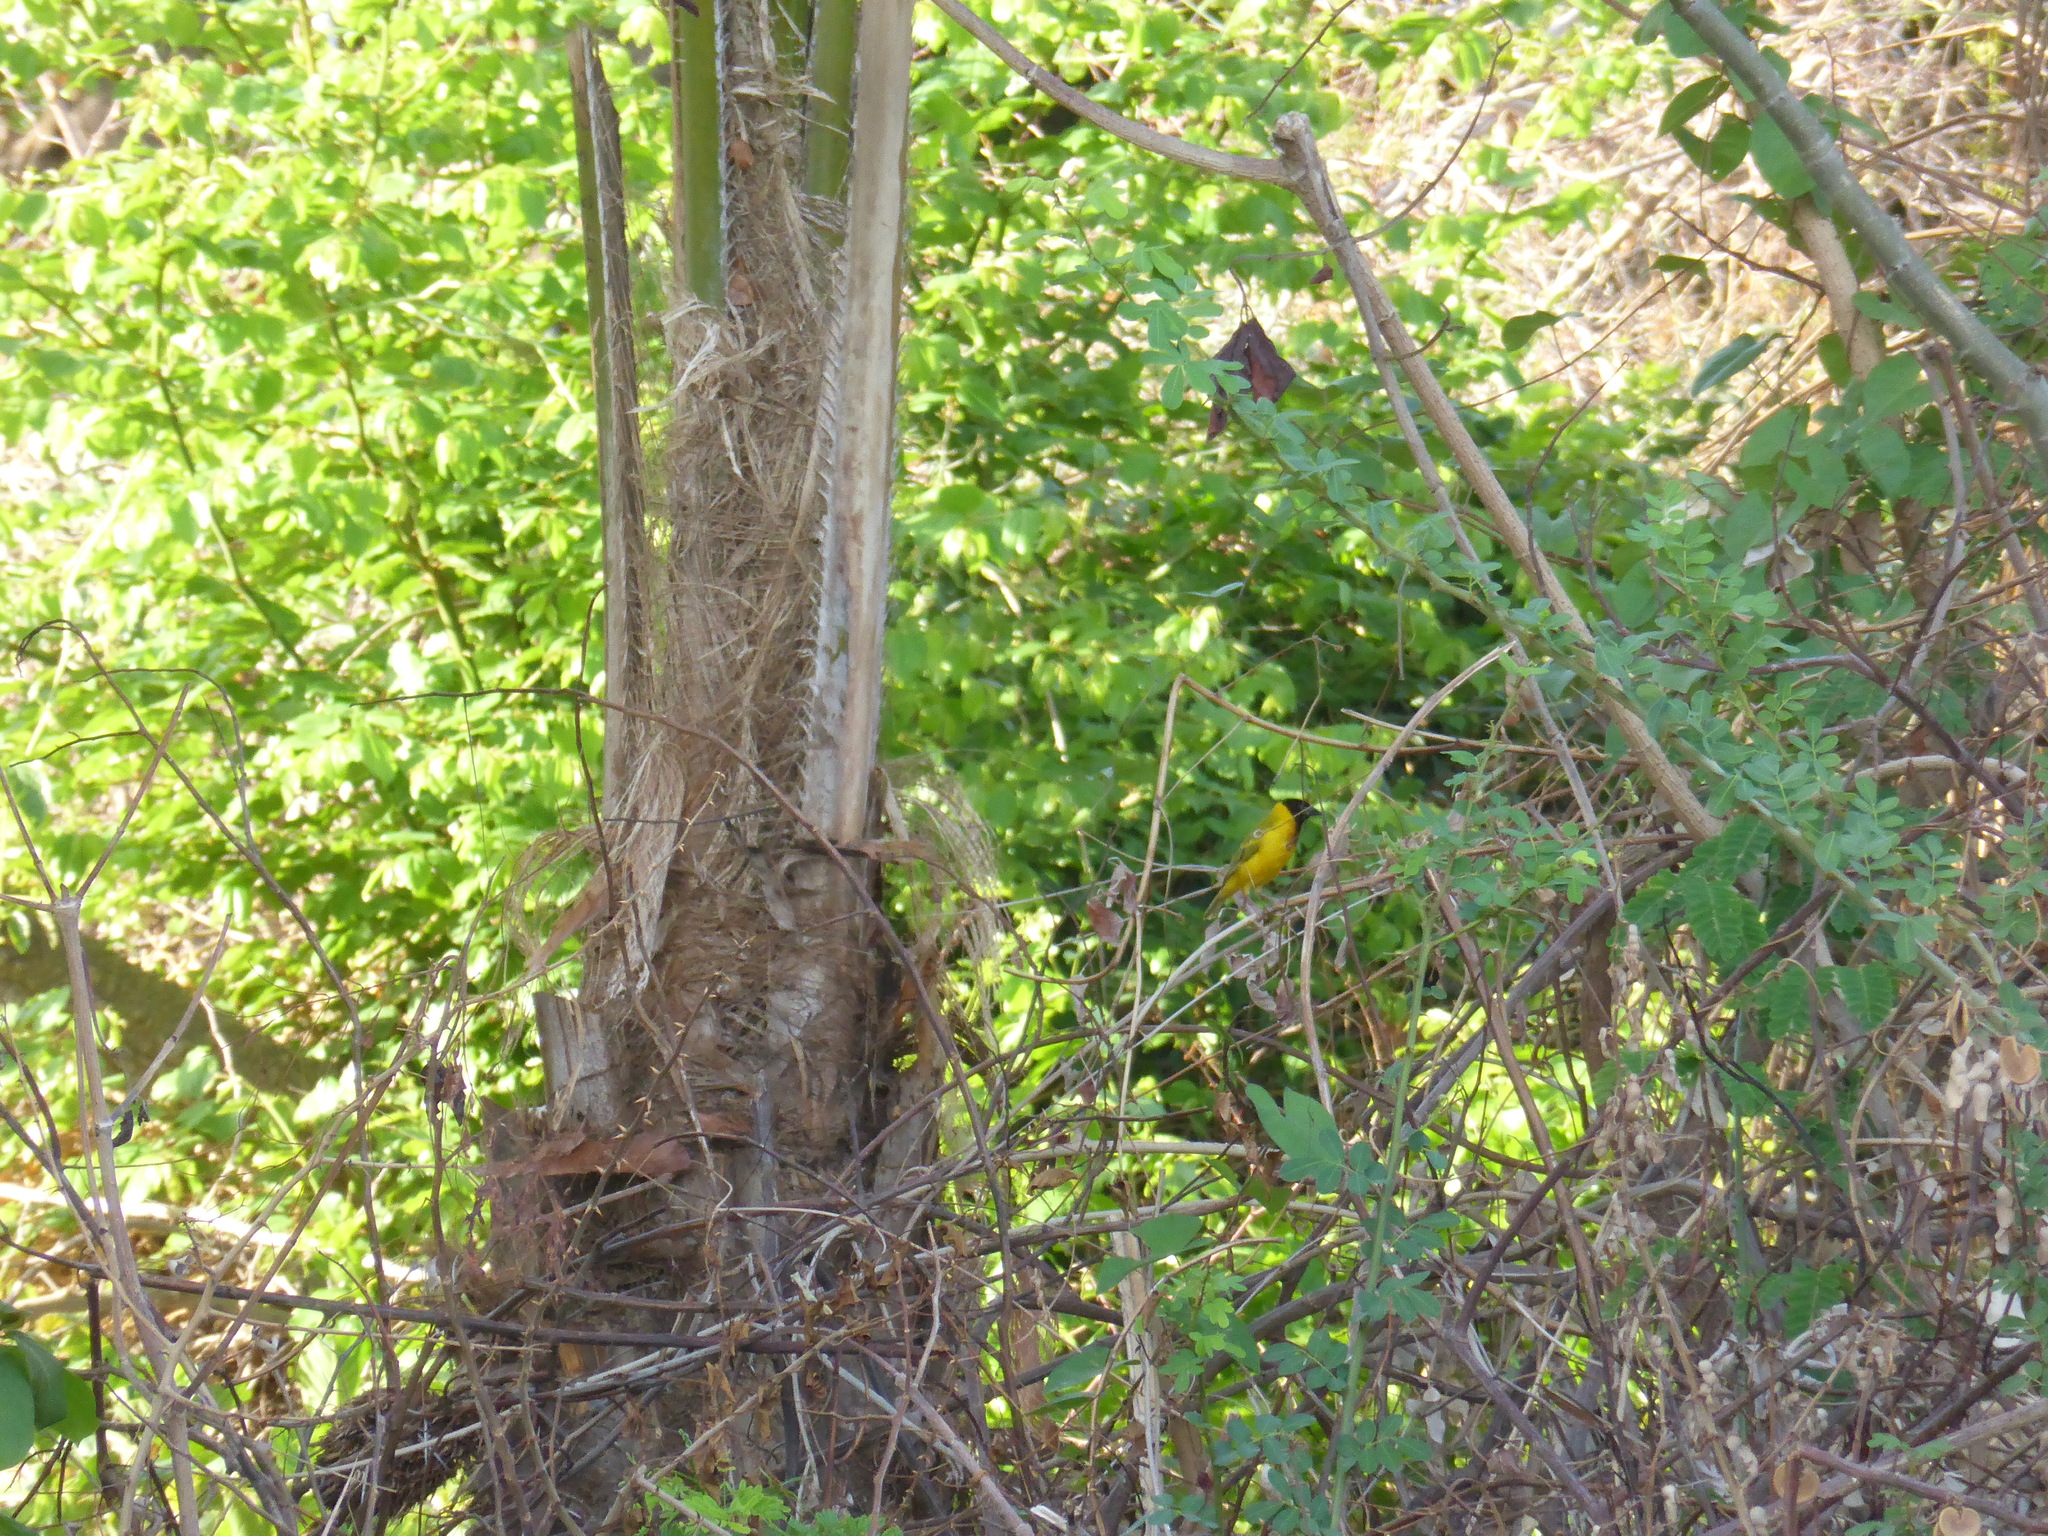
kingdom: Animalia
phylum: Chordata
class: Aves
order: Passeriformes
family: Ploceidae
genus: Ploceus
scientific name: Ploceus melanocephalus
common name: Black-headed weaver
